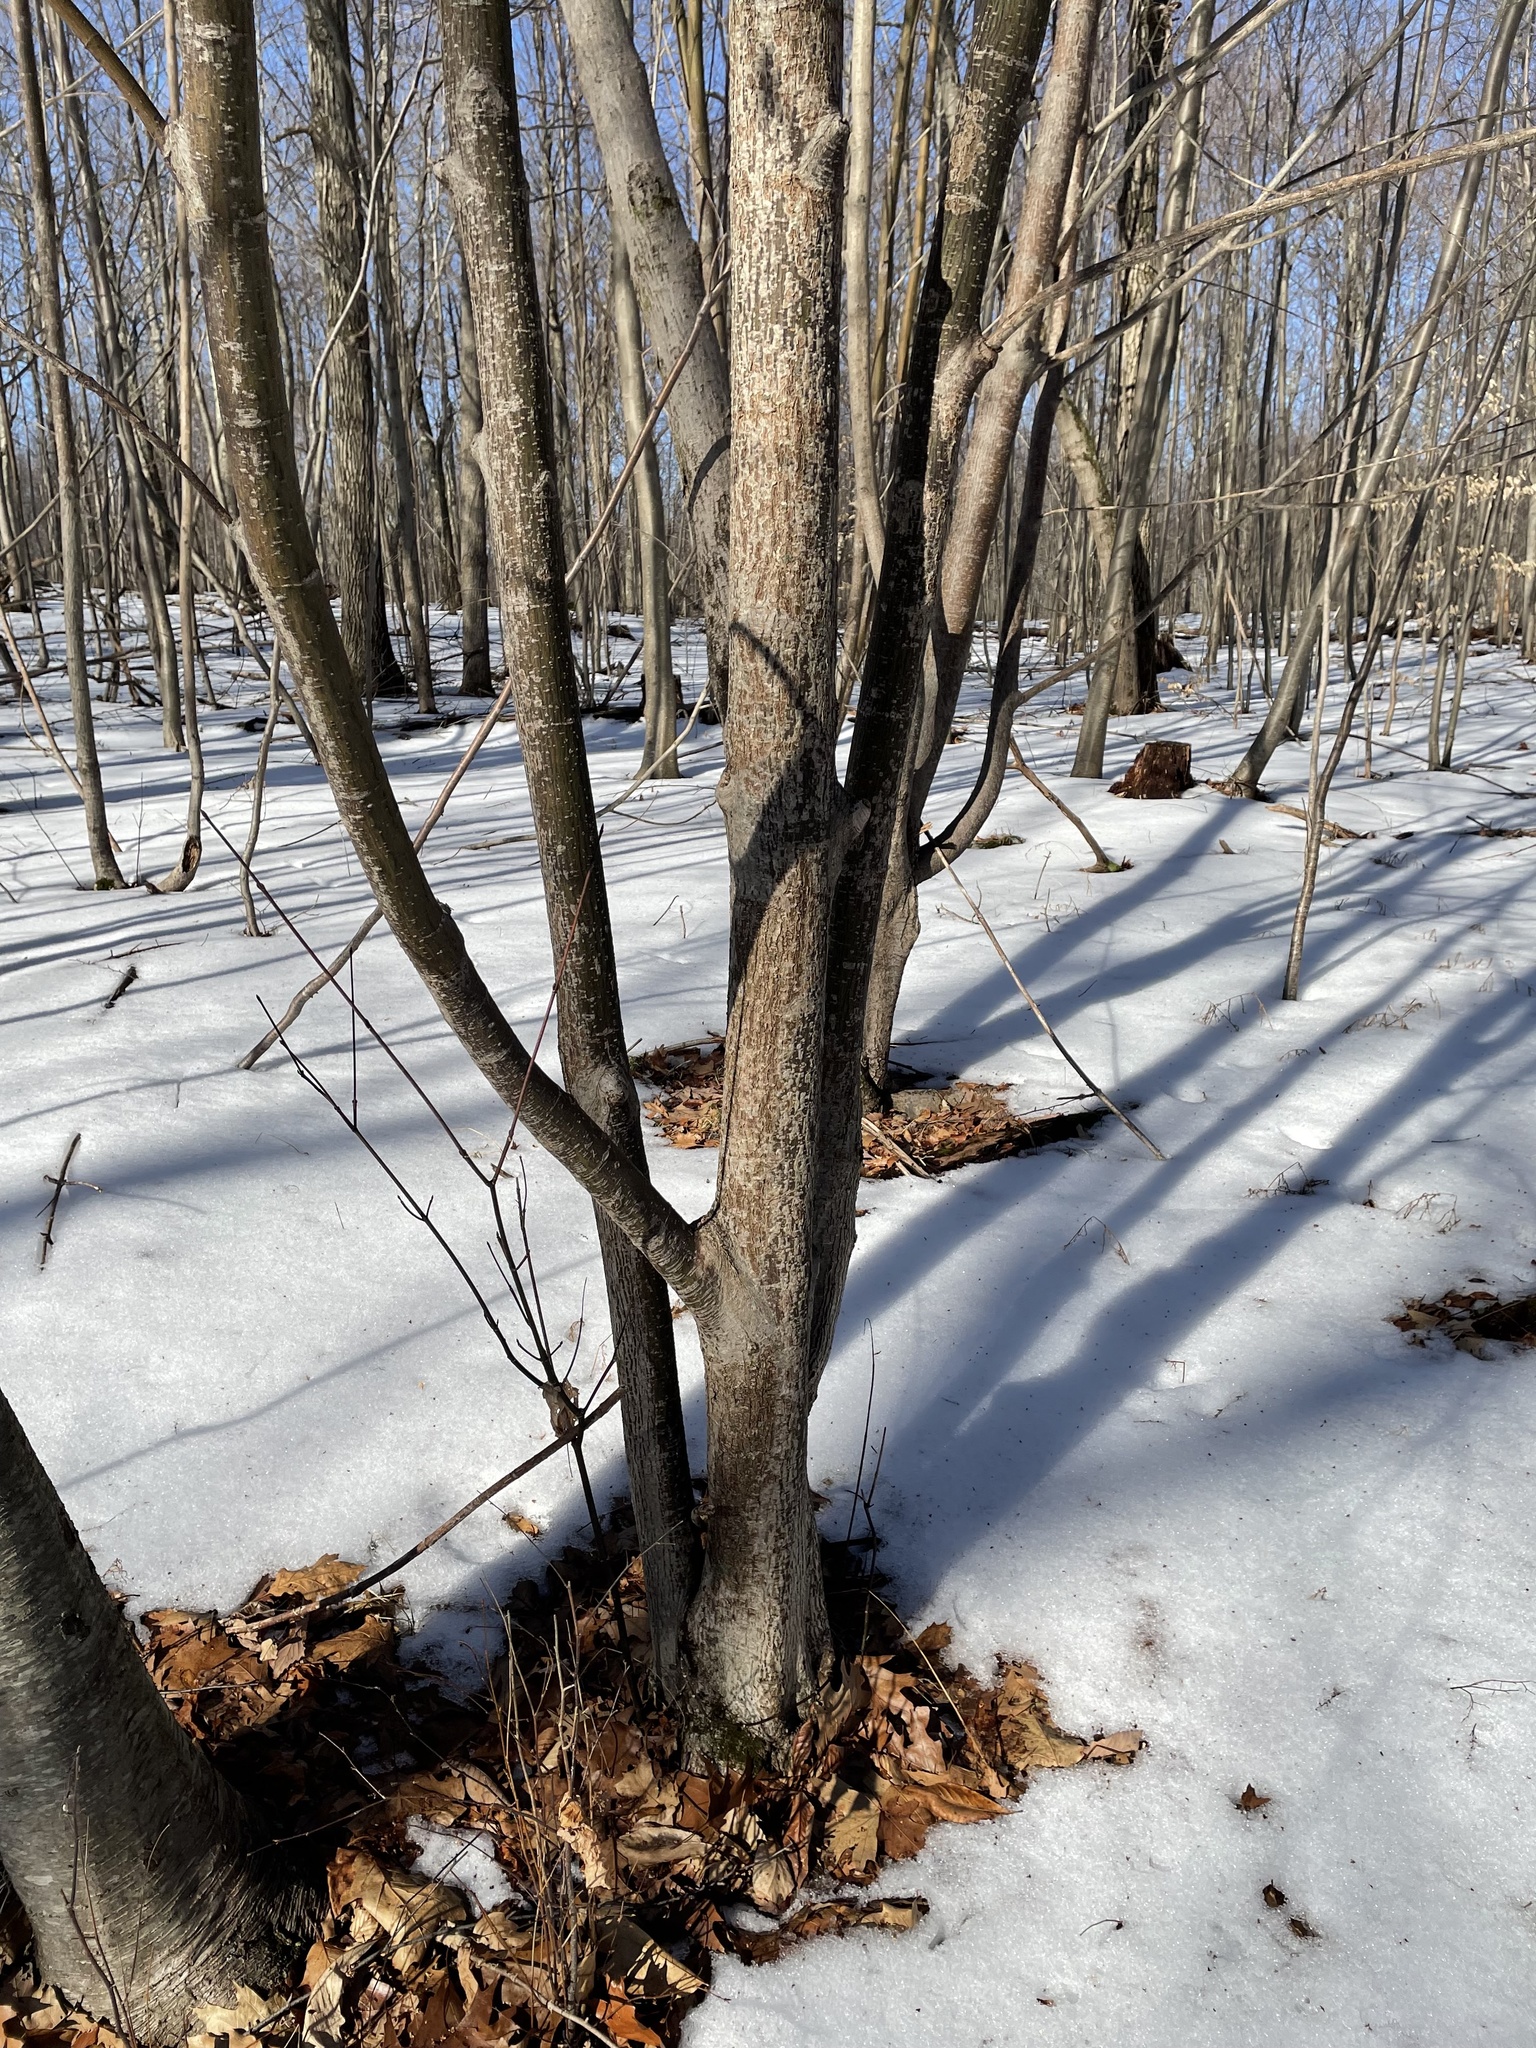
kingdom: Plantae
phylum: Tracheophyta
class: Magnoliopsida
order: Sapindales
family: Sapindaceae
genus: Acer
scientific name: Acer pensylvanicum
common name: Moosewood
